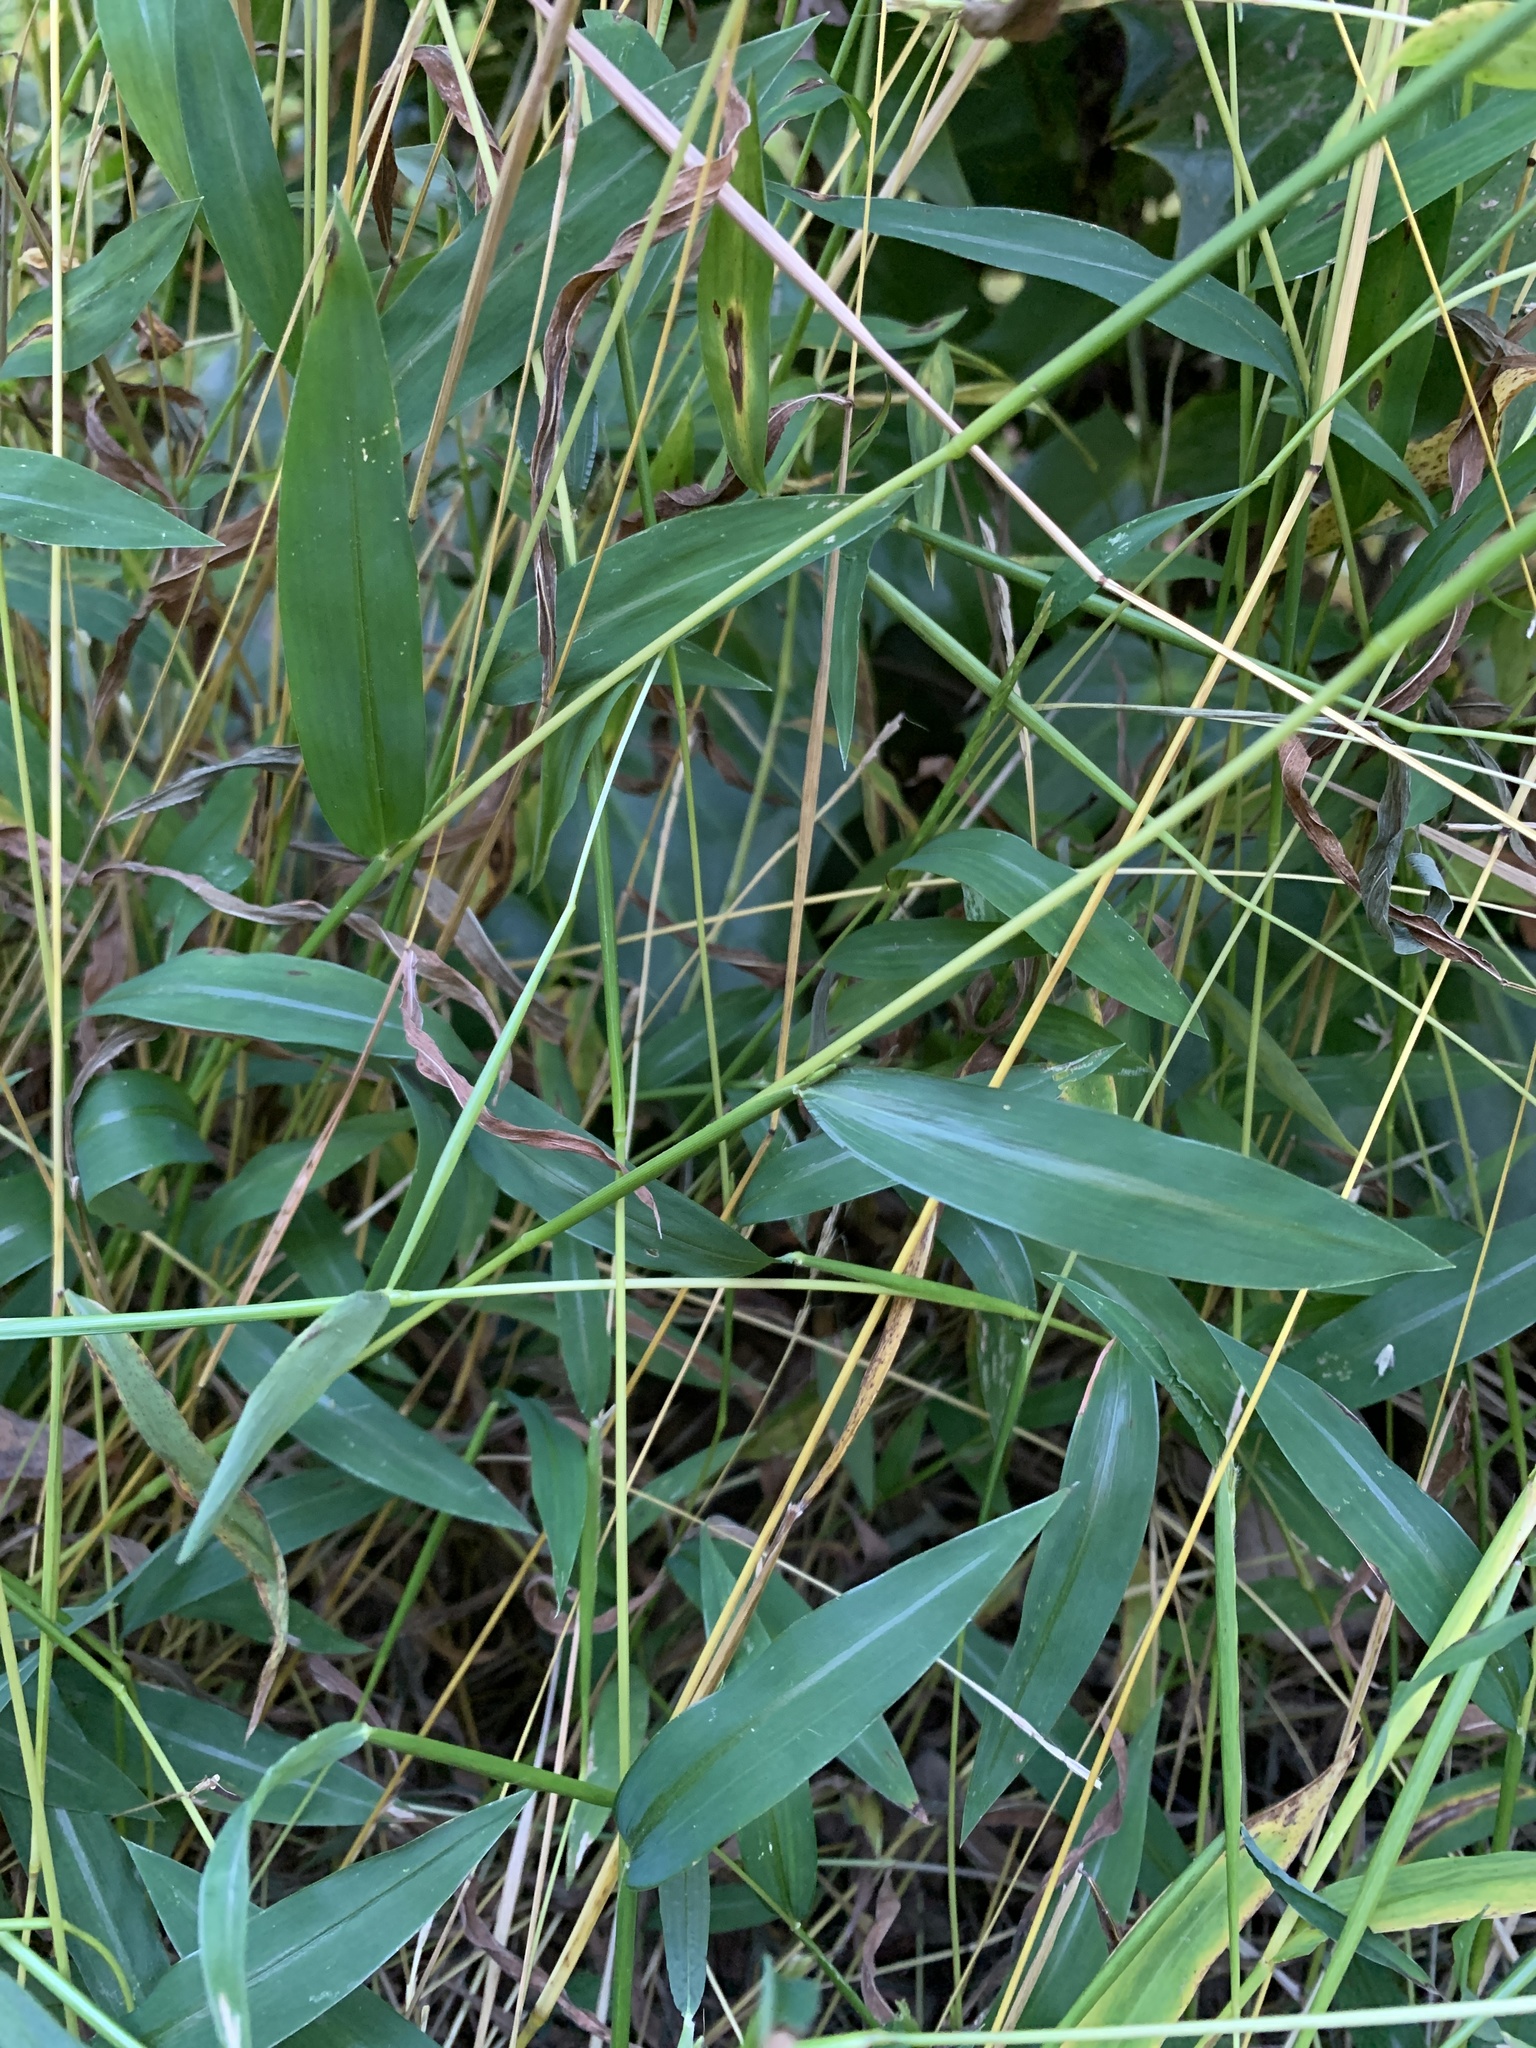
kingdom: Plantae
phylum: Tracheophyta
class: Liliopsida
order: Poales
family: Poaceae
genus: Microstegium
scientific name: Microstegium vimineum
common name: Japanese stiltgrass
